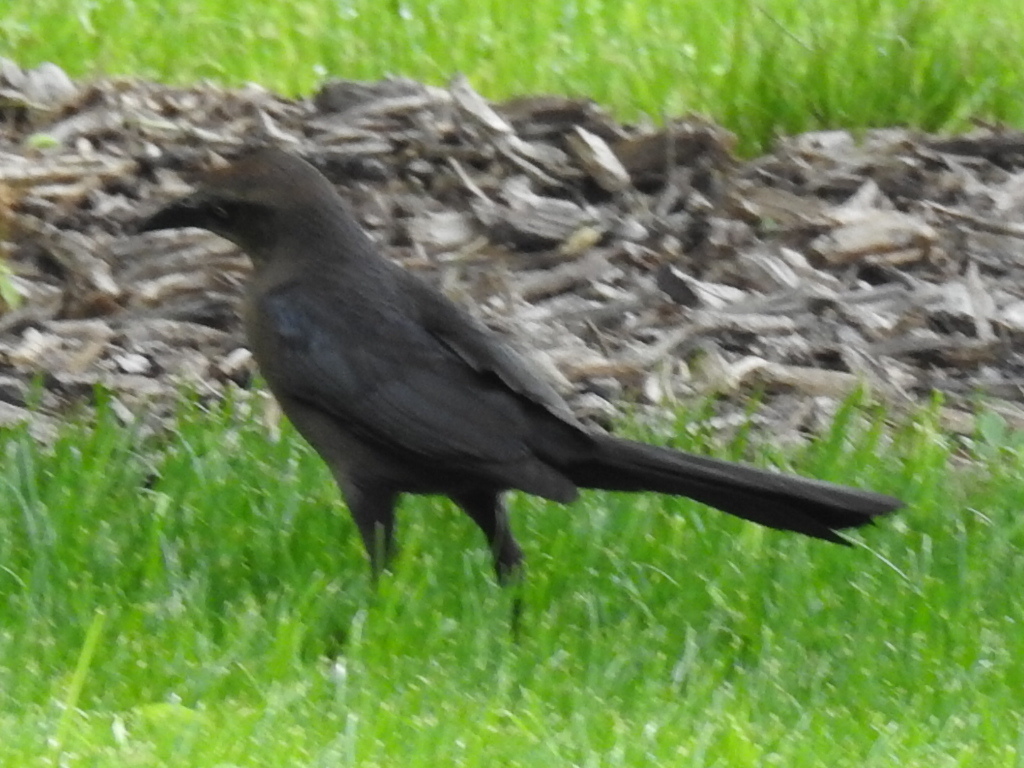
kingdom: Animalia
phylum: Chordata
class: Aves
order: Passeriformes
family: Icteridae
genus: Quiscalus
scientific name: Quiscalus mexicanus
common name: Great-tailed grackle
